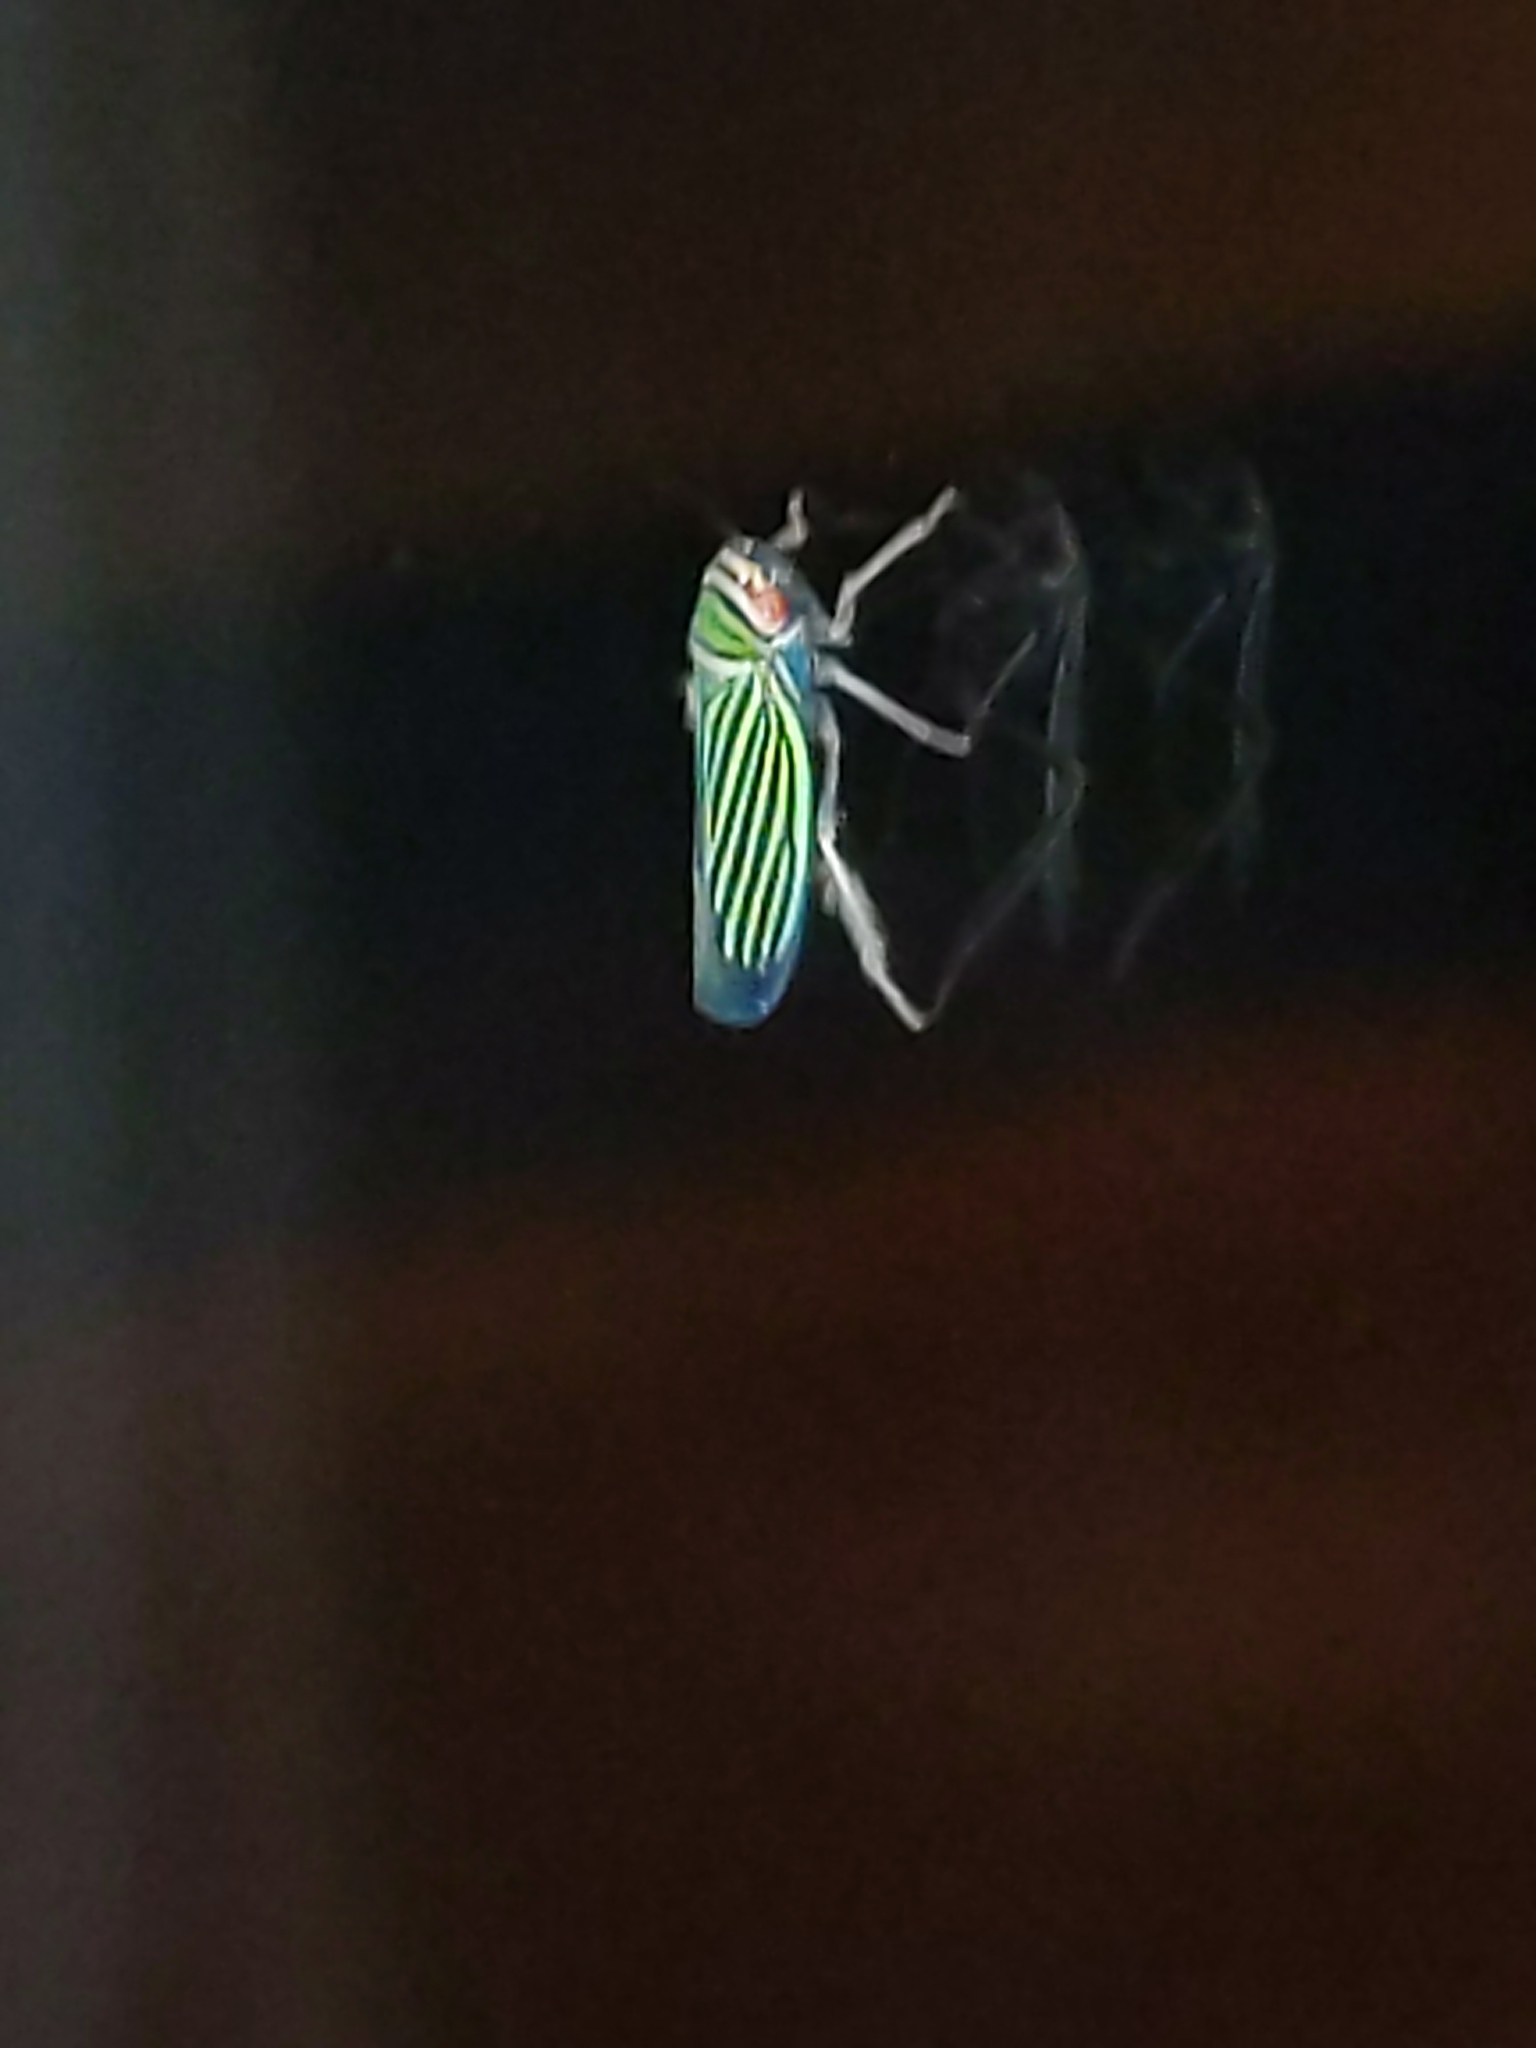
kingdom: Animalia
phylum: Arthropoda
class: Insecta
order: Hemiptera
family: Cicadellidae
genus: Tylozygus
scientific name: Tylozygus bifidus
